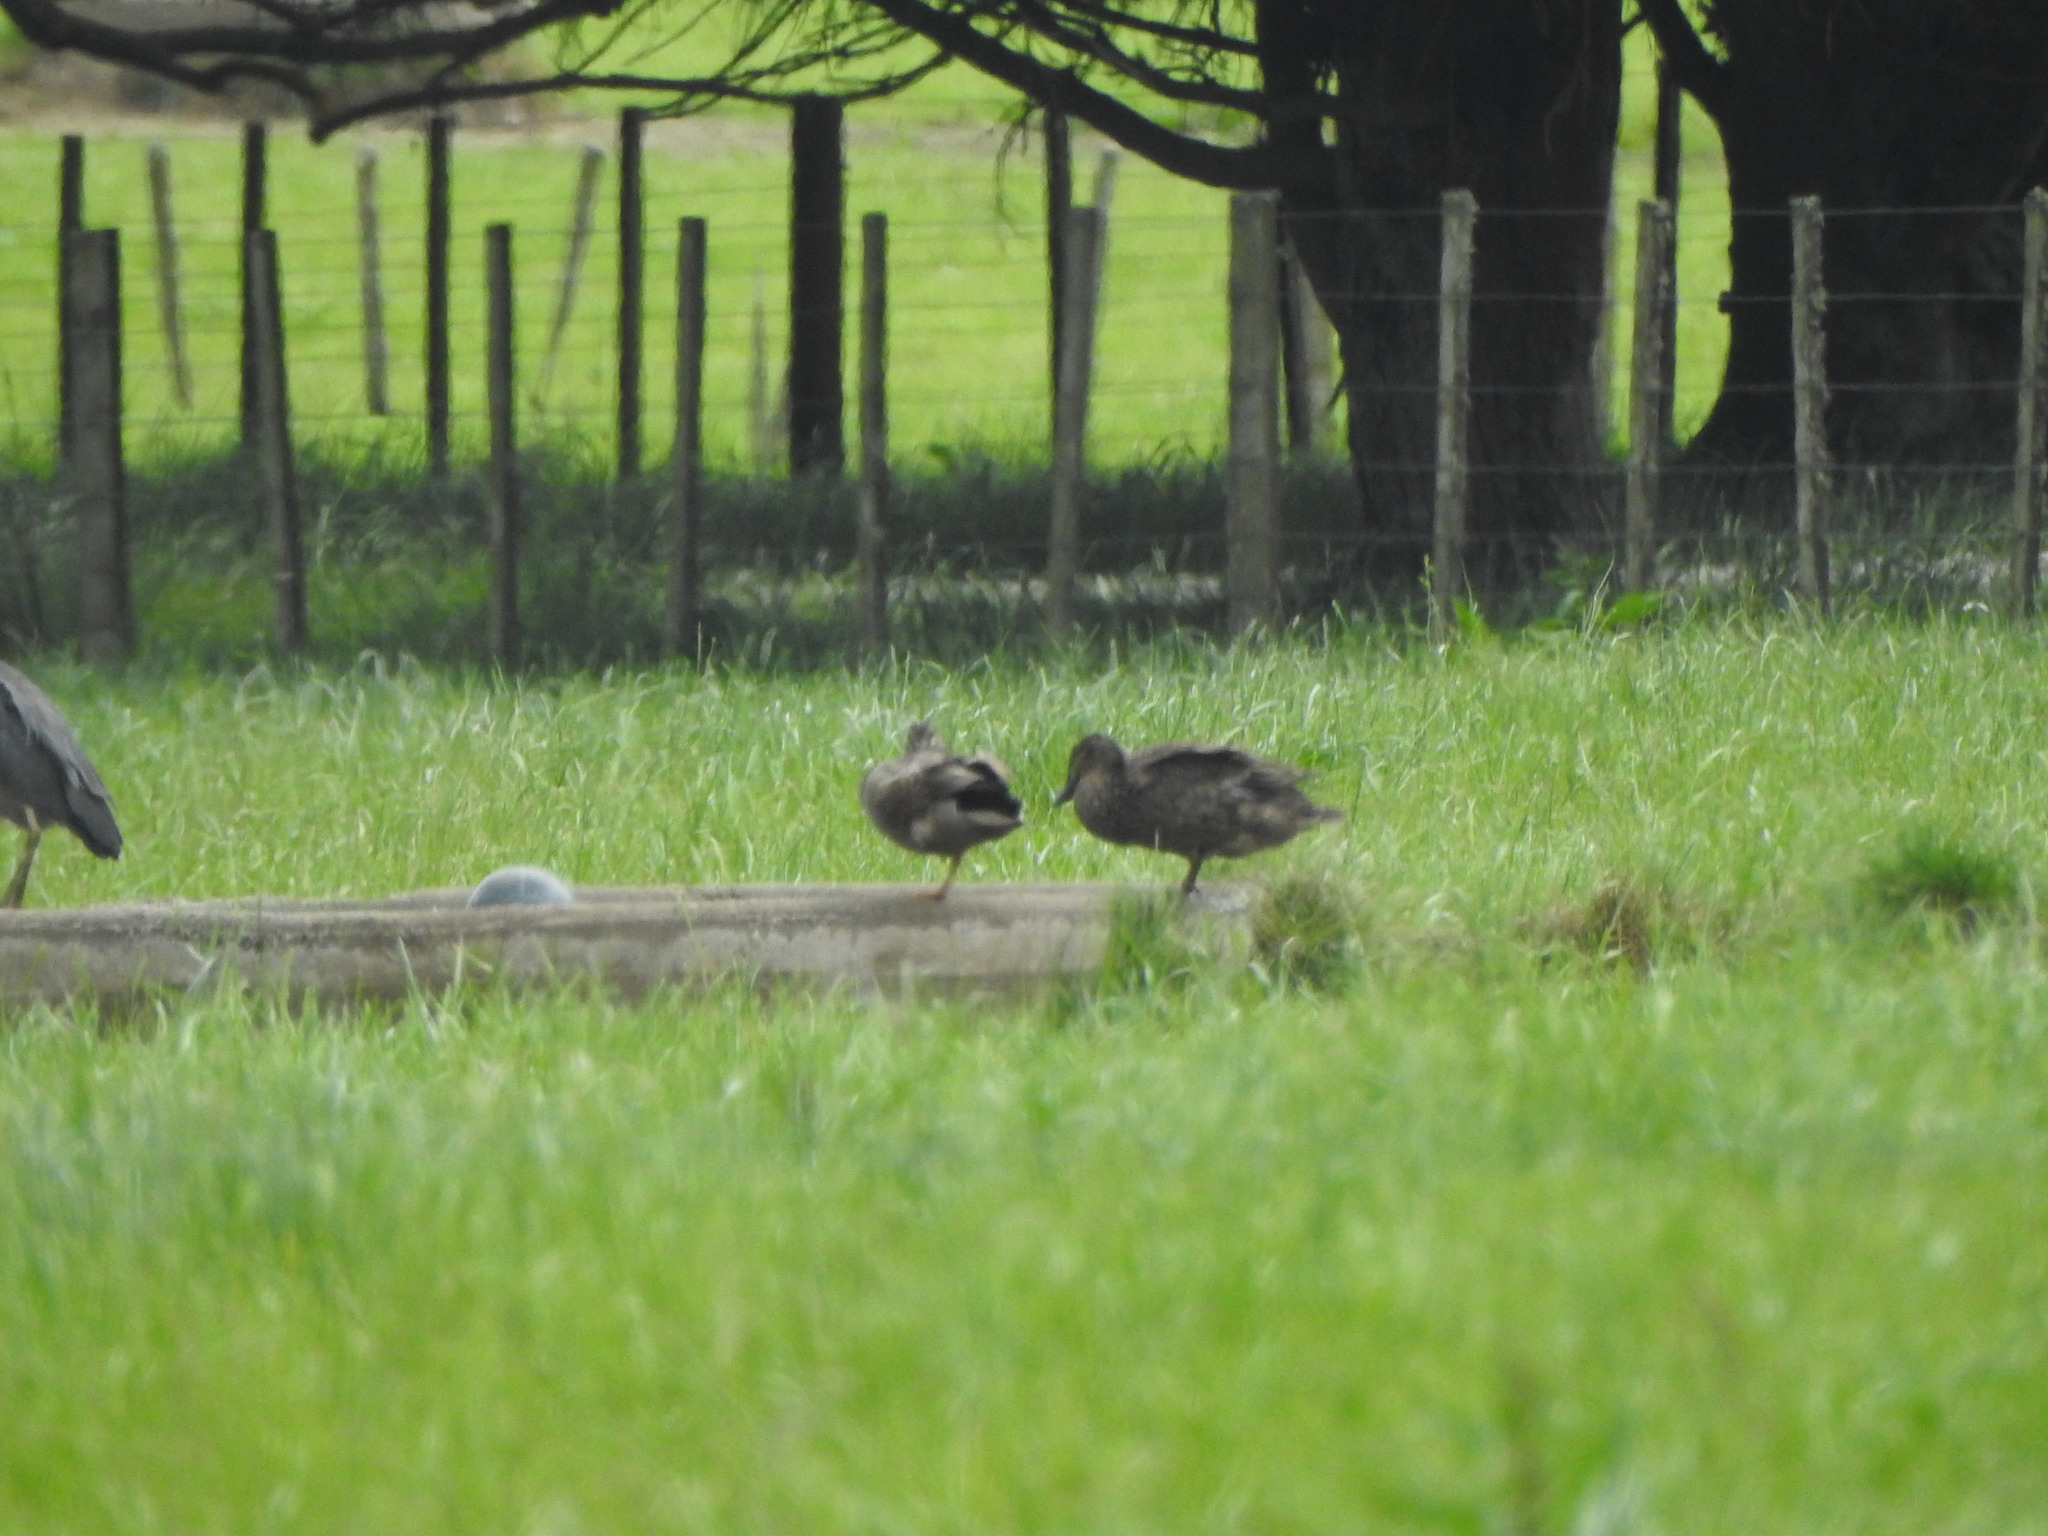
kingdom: Animalia
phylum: Chordata
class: Aves
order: Anseriformes
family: Anatidae
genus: Anas
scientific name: Anas platyrhynchos
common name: Mallard
